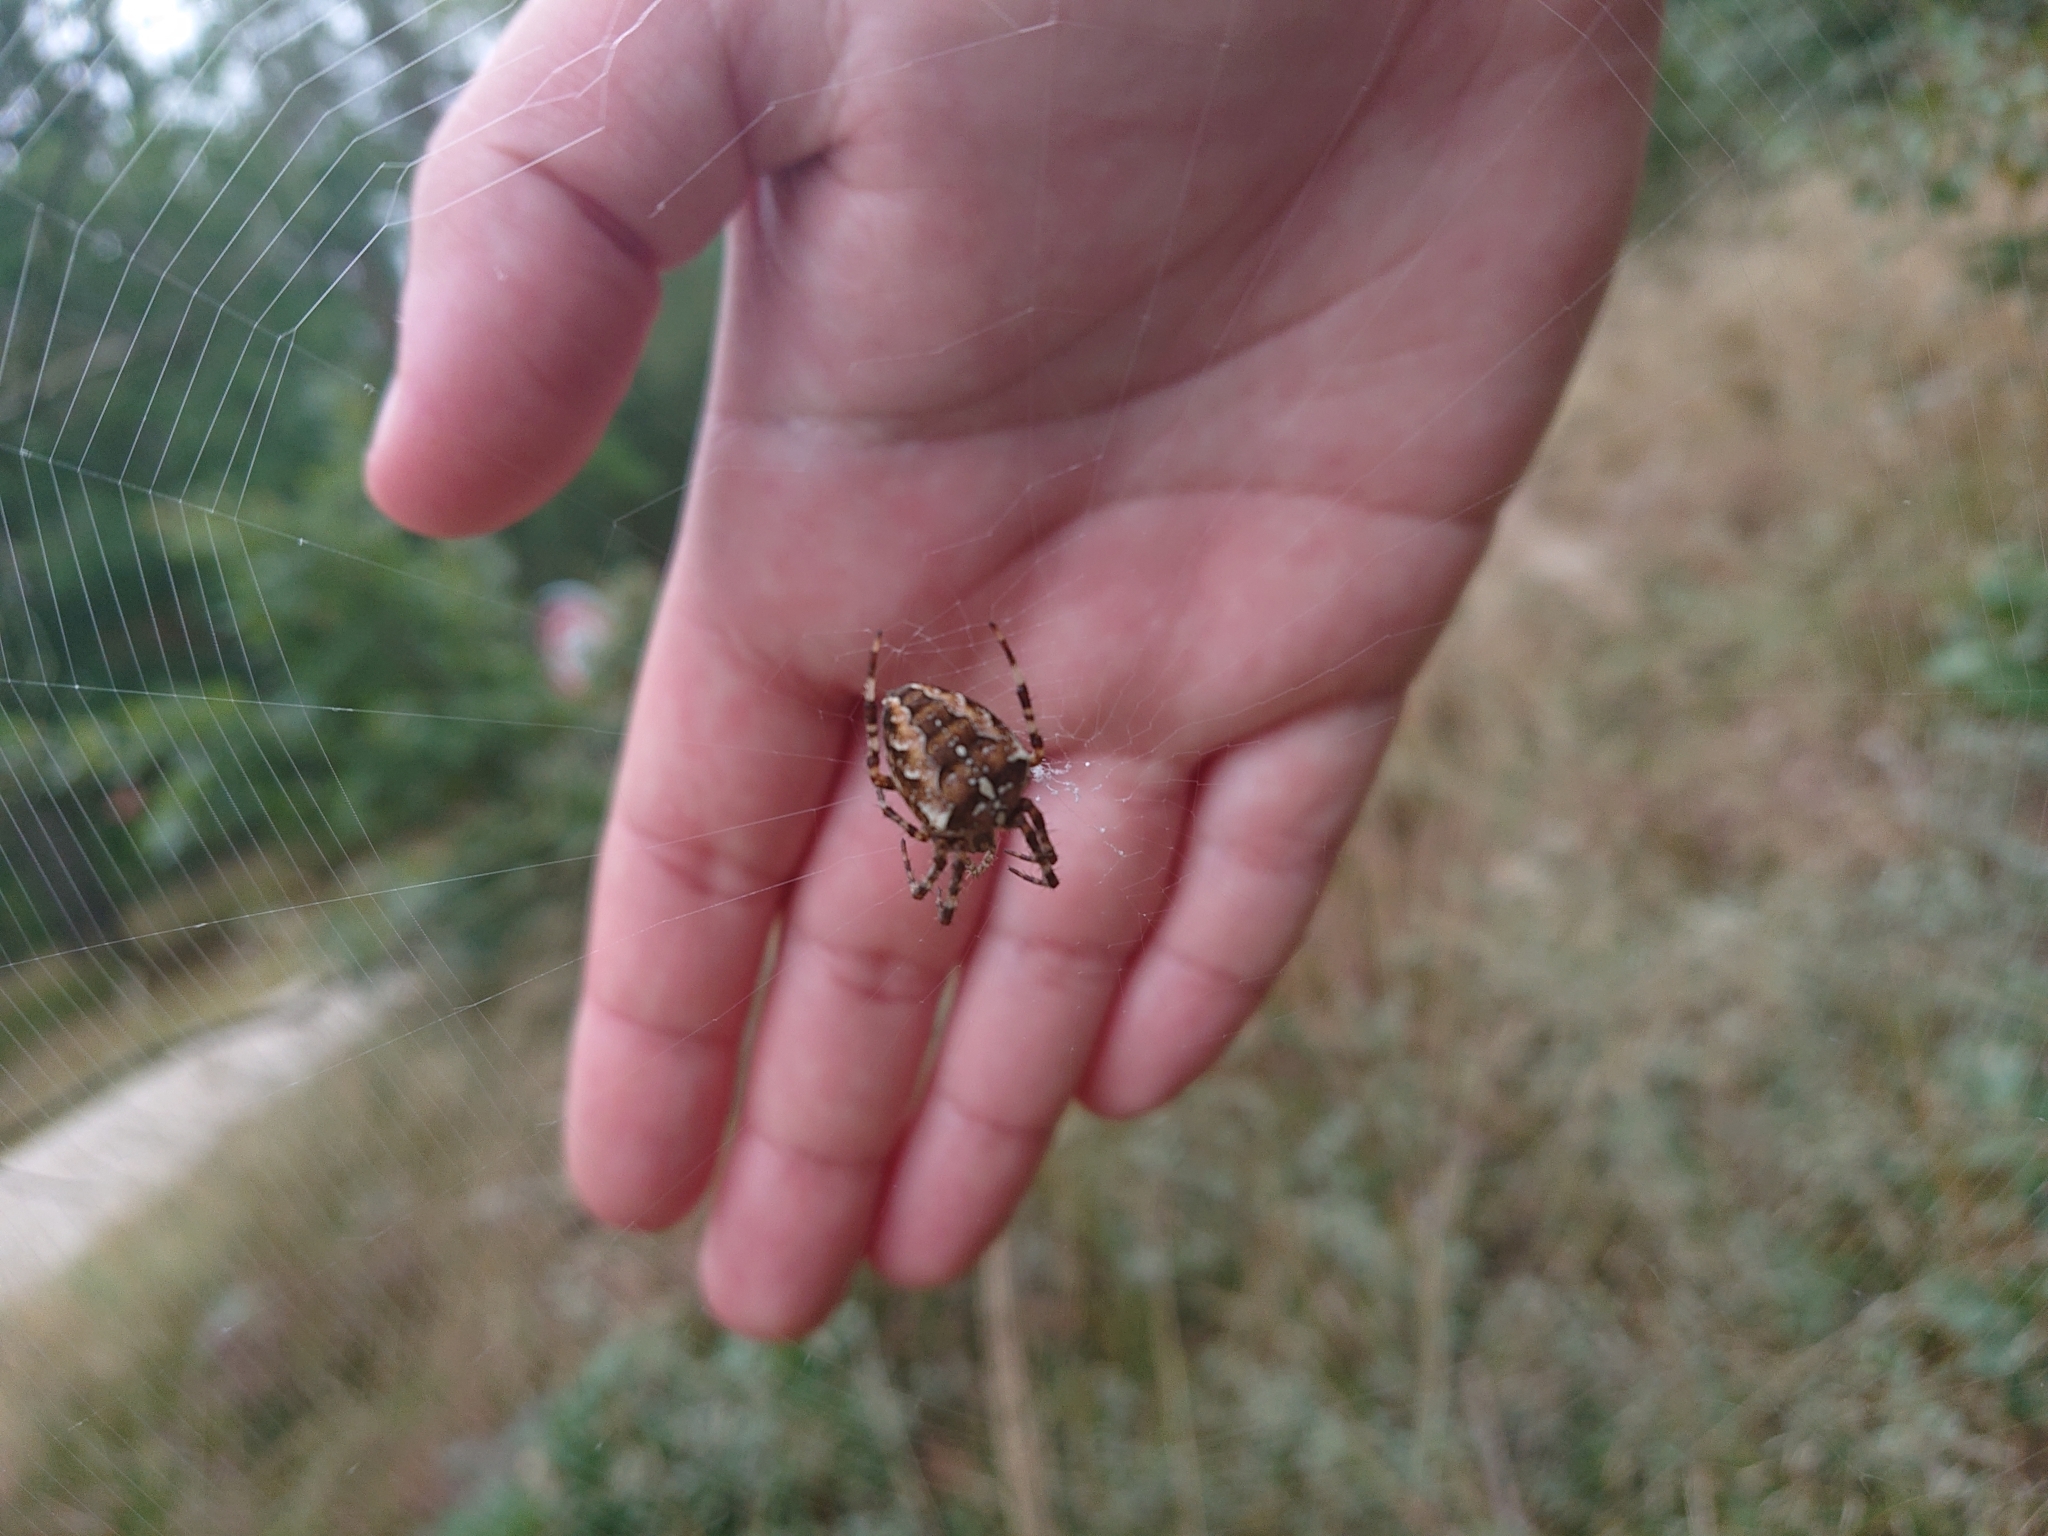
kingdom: Animalia
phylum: Arthropoda
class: Arachnida
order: Araneae
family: Araneidae
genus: Araneus
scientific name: Araneus diadematus
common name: Cross orbweaver
